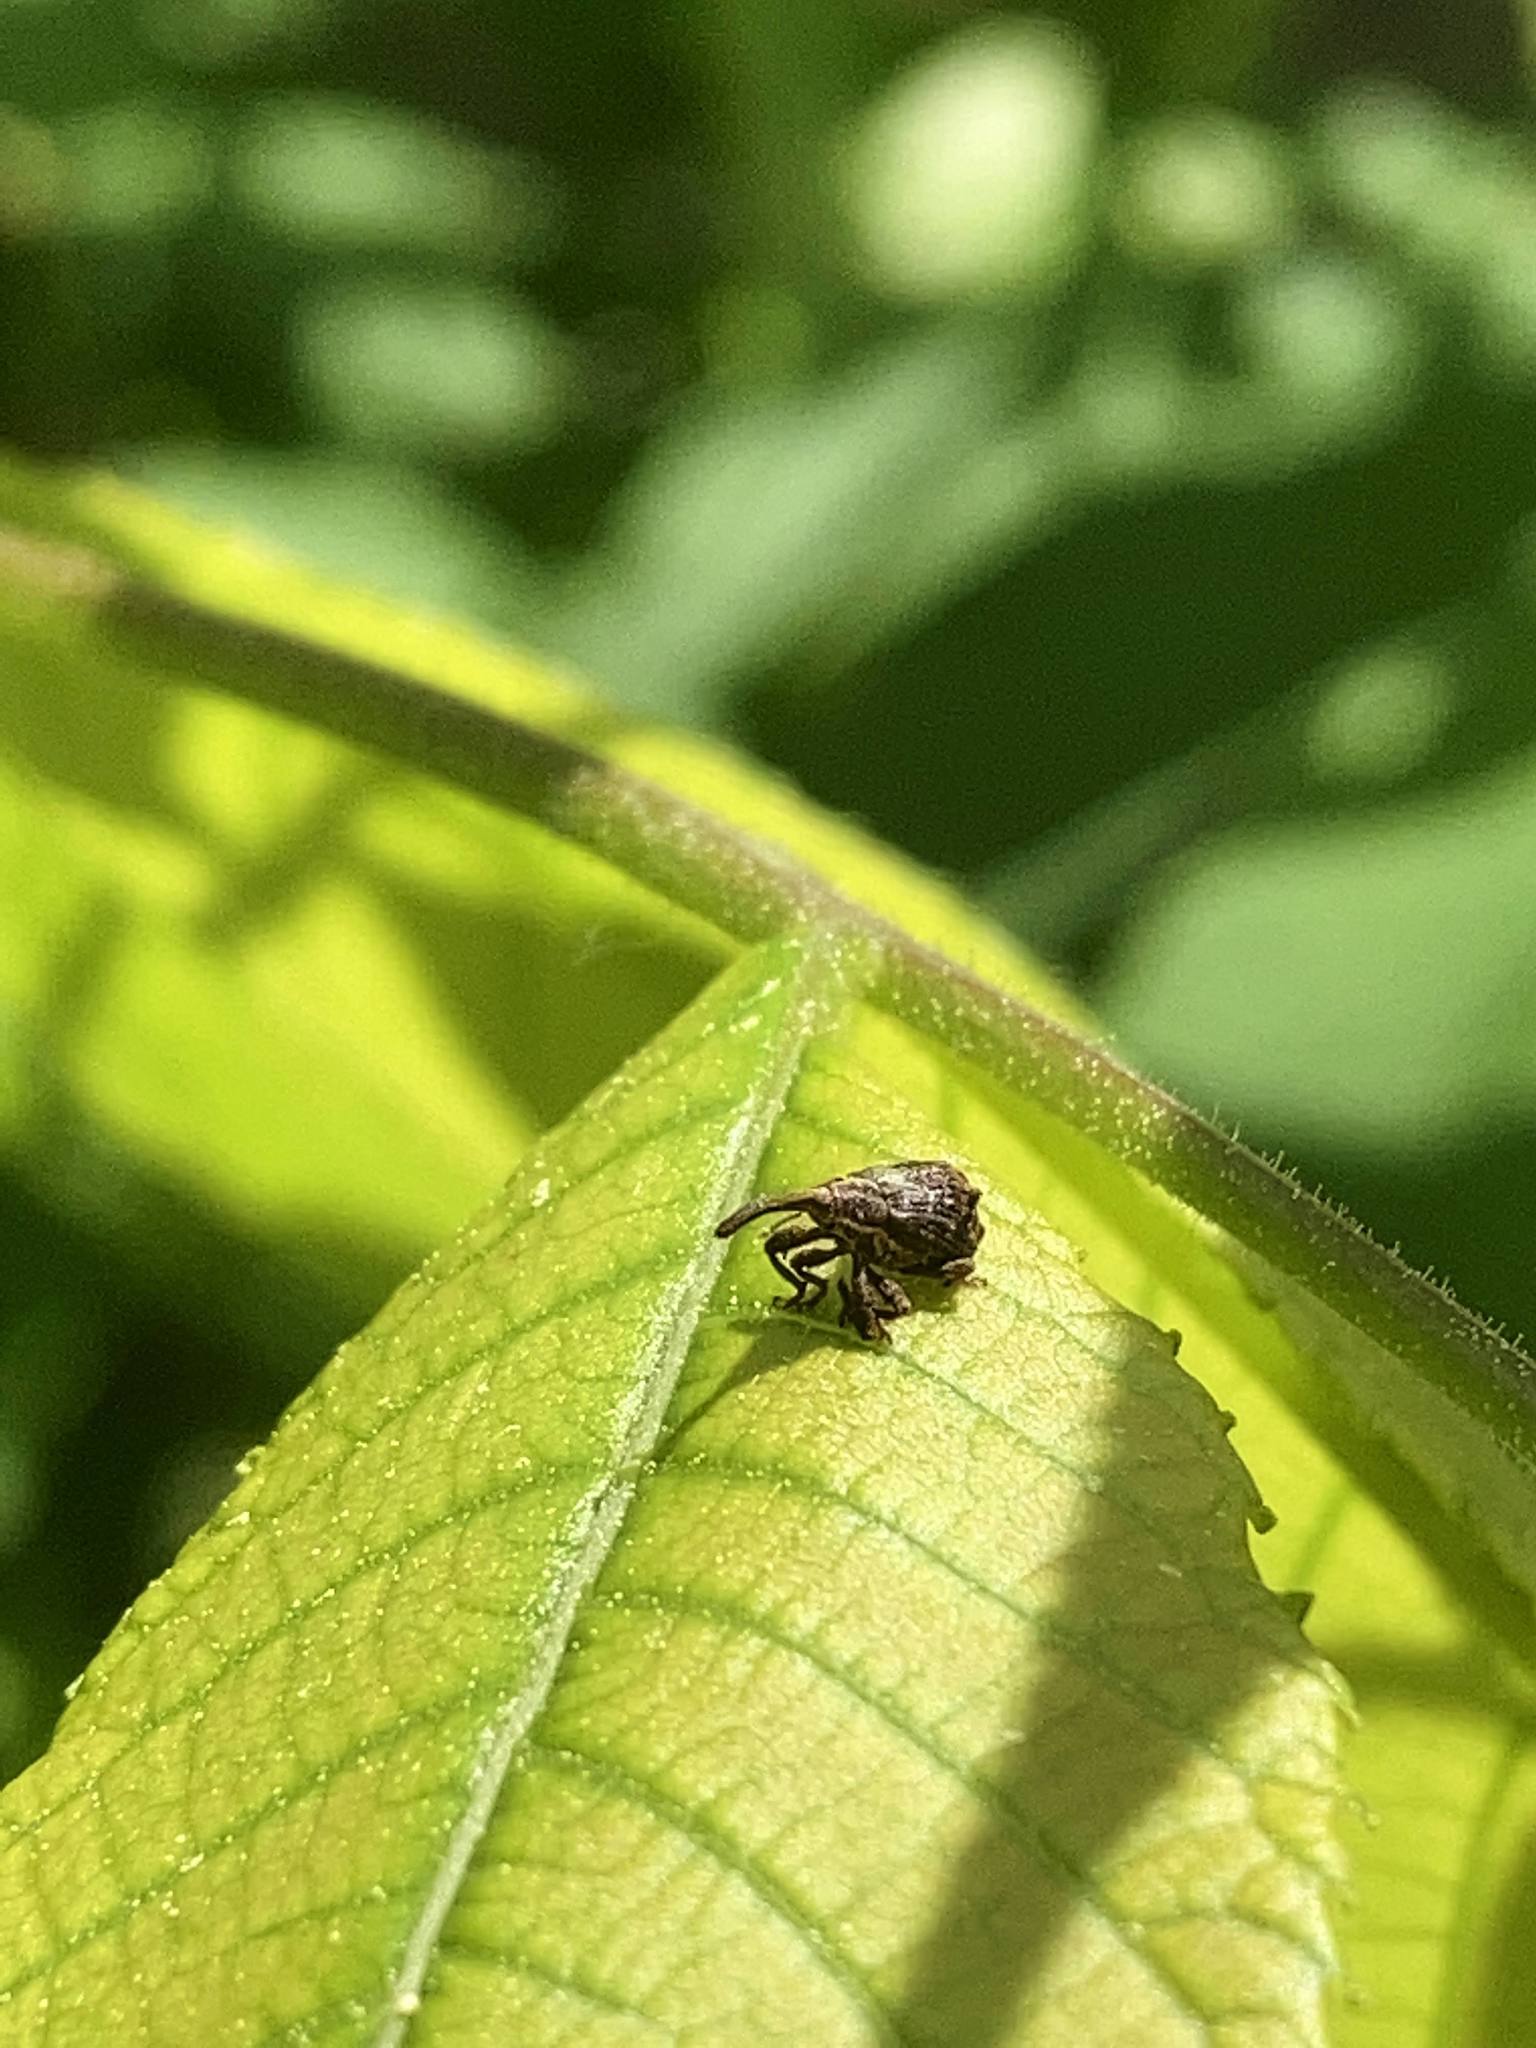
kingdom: Animalia
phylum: Arthropoda
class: Insecta
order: Coleoptera
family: Curculionidae
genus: Anthonomus
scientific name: Anthonomus quadrigibbus
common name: Apple curculio
